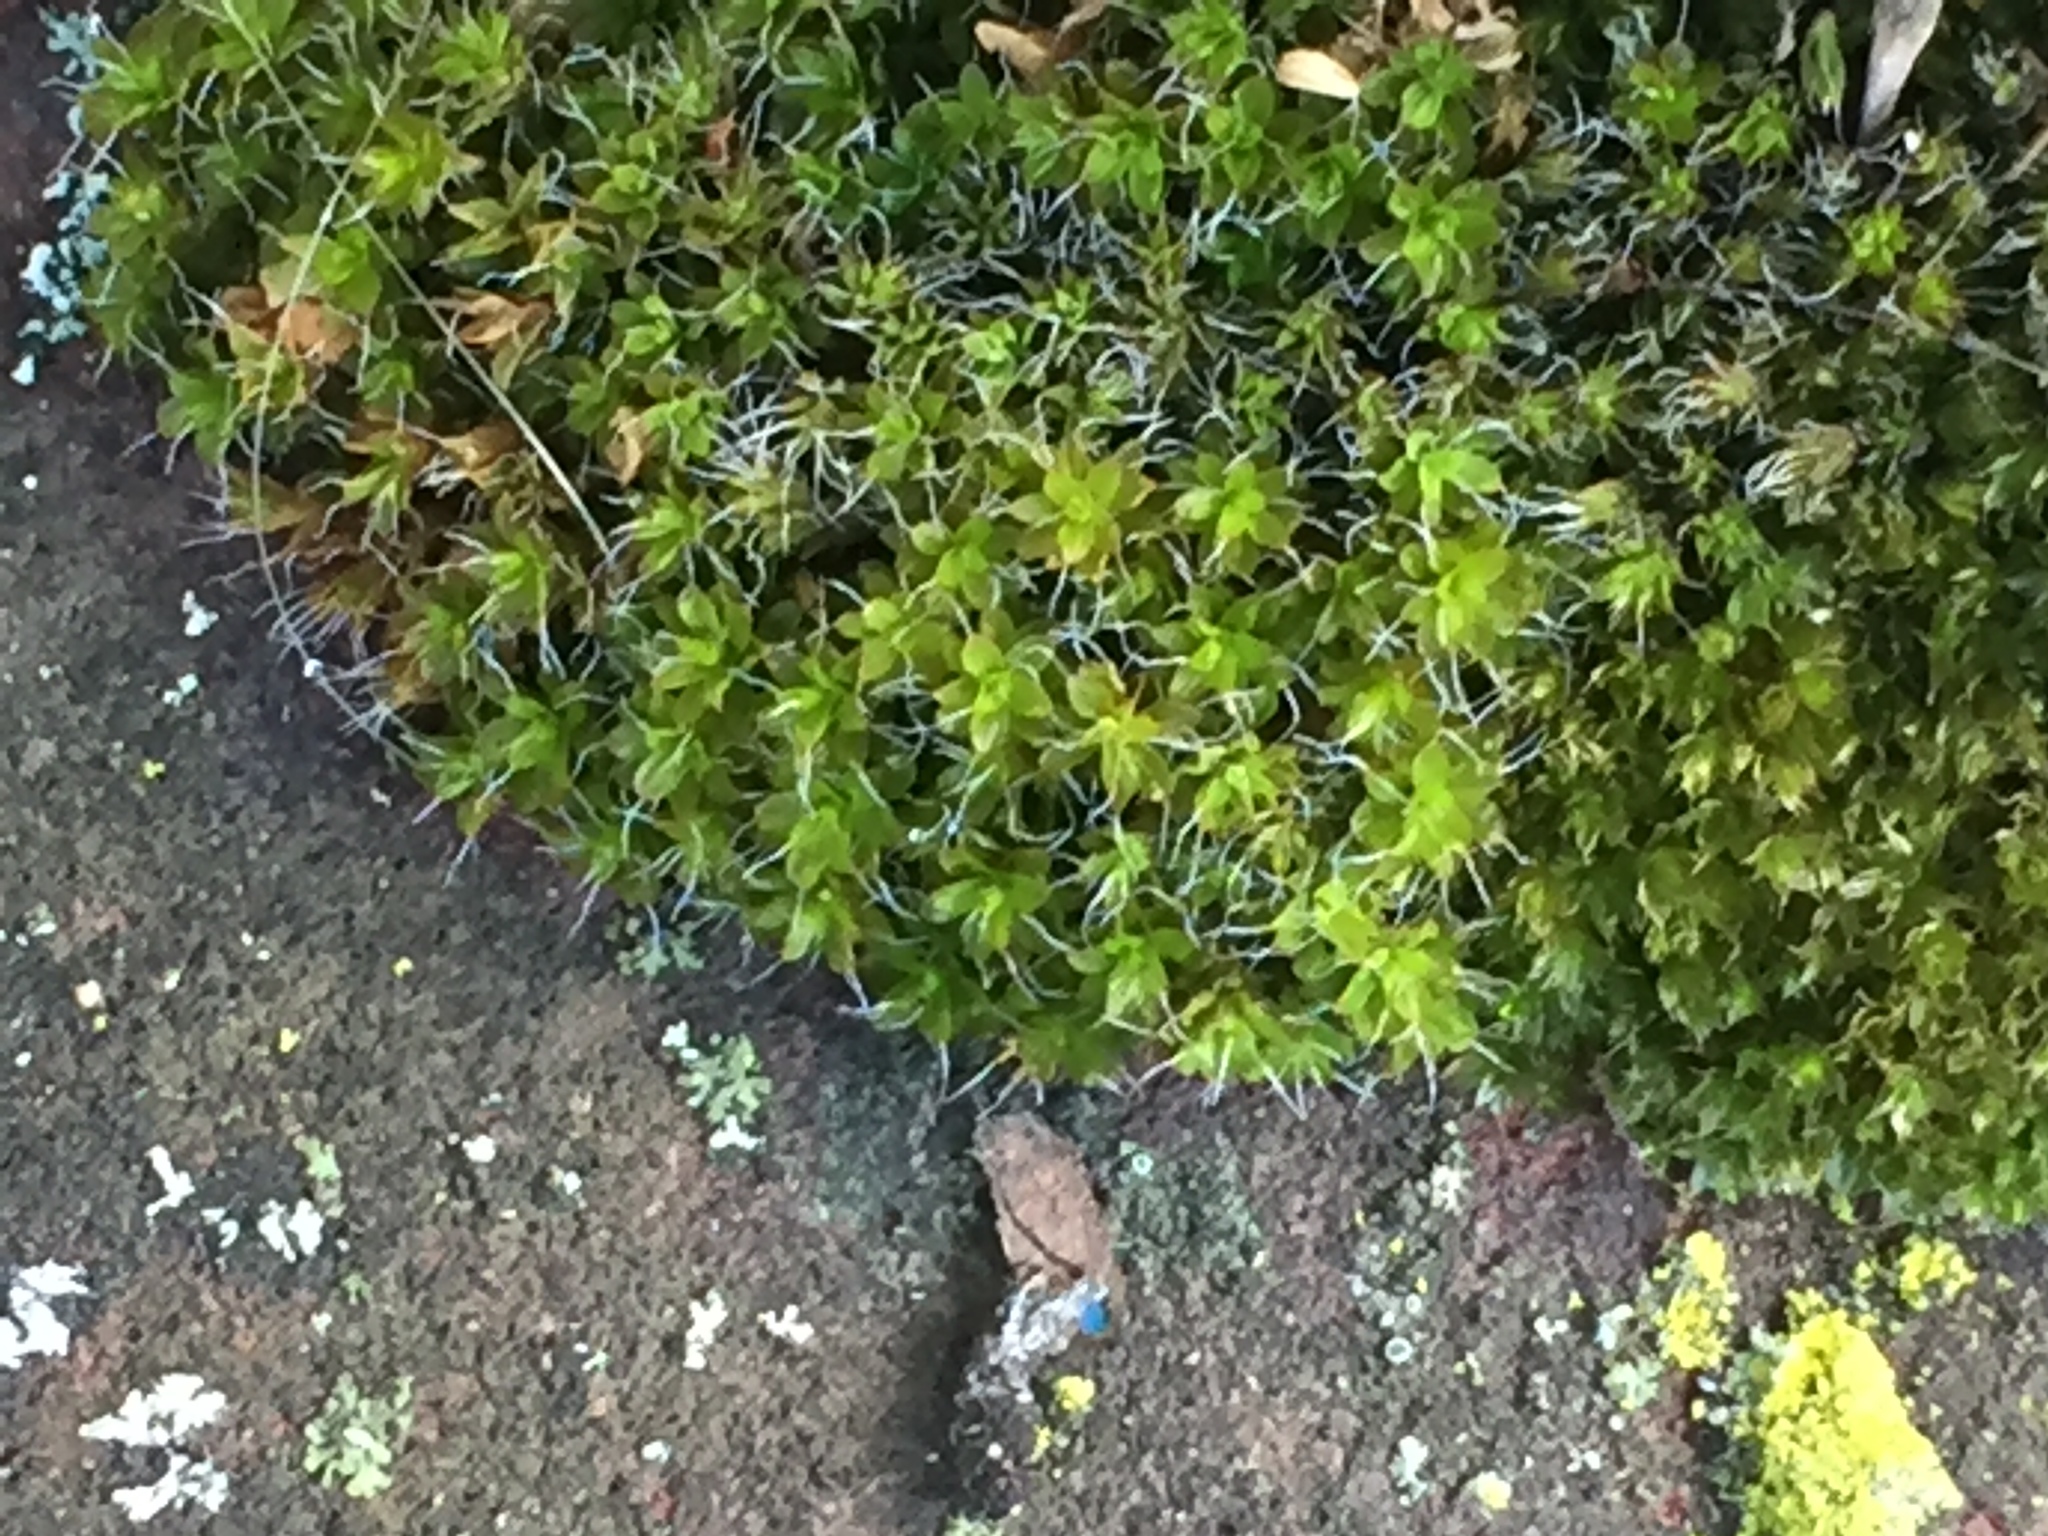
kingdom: Plantae
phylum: Bryophyta
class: Bryopsida
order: Pottiales
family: Pottiaceae
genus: Syntrichia
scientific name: Syntrichia montana
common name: Intermediate screw-moss
